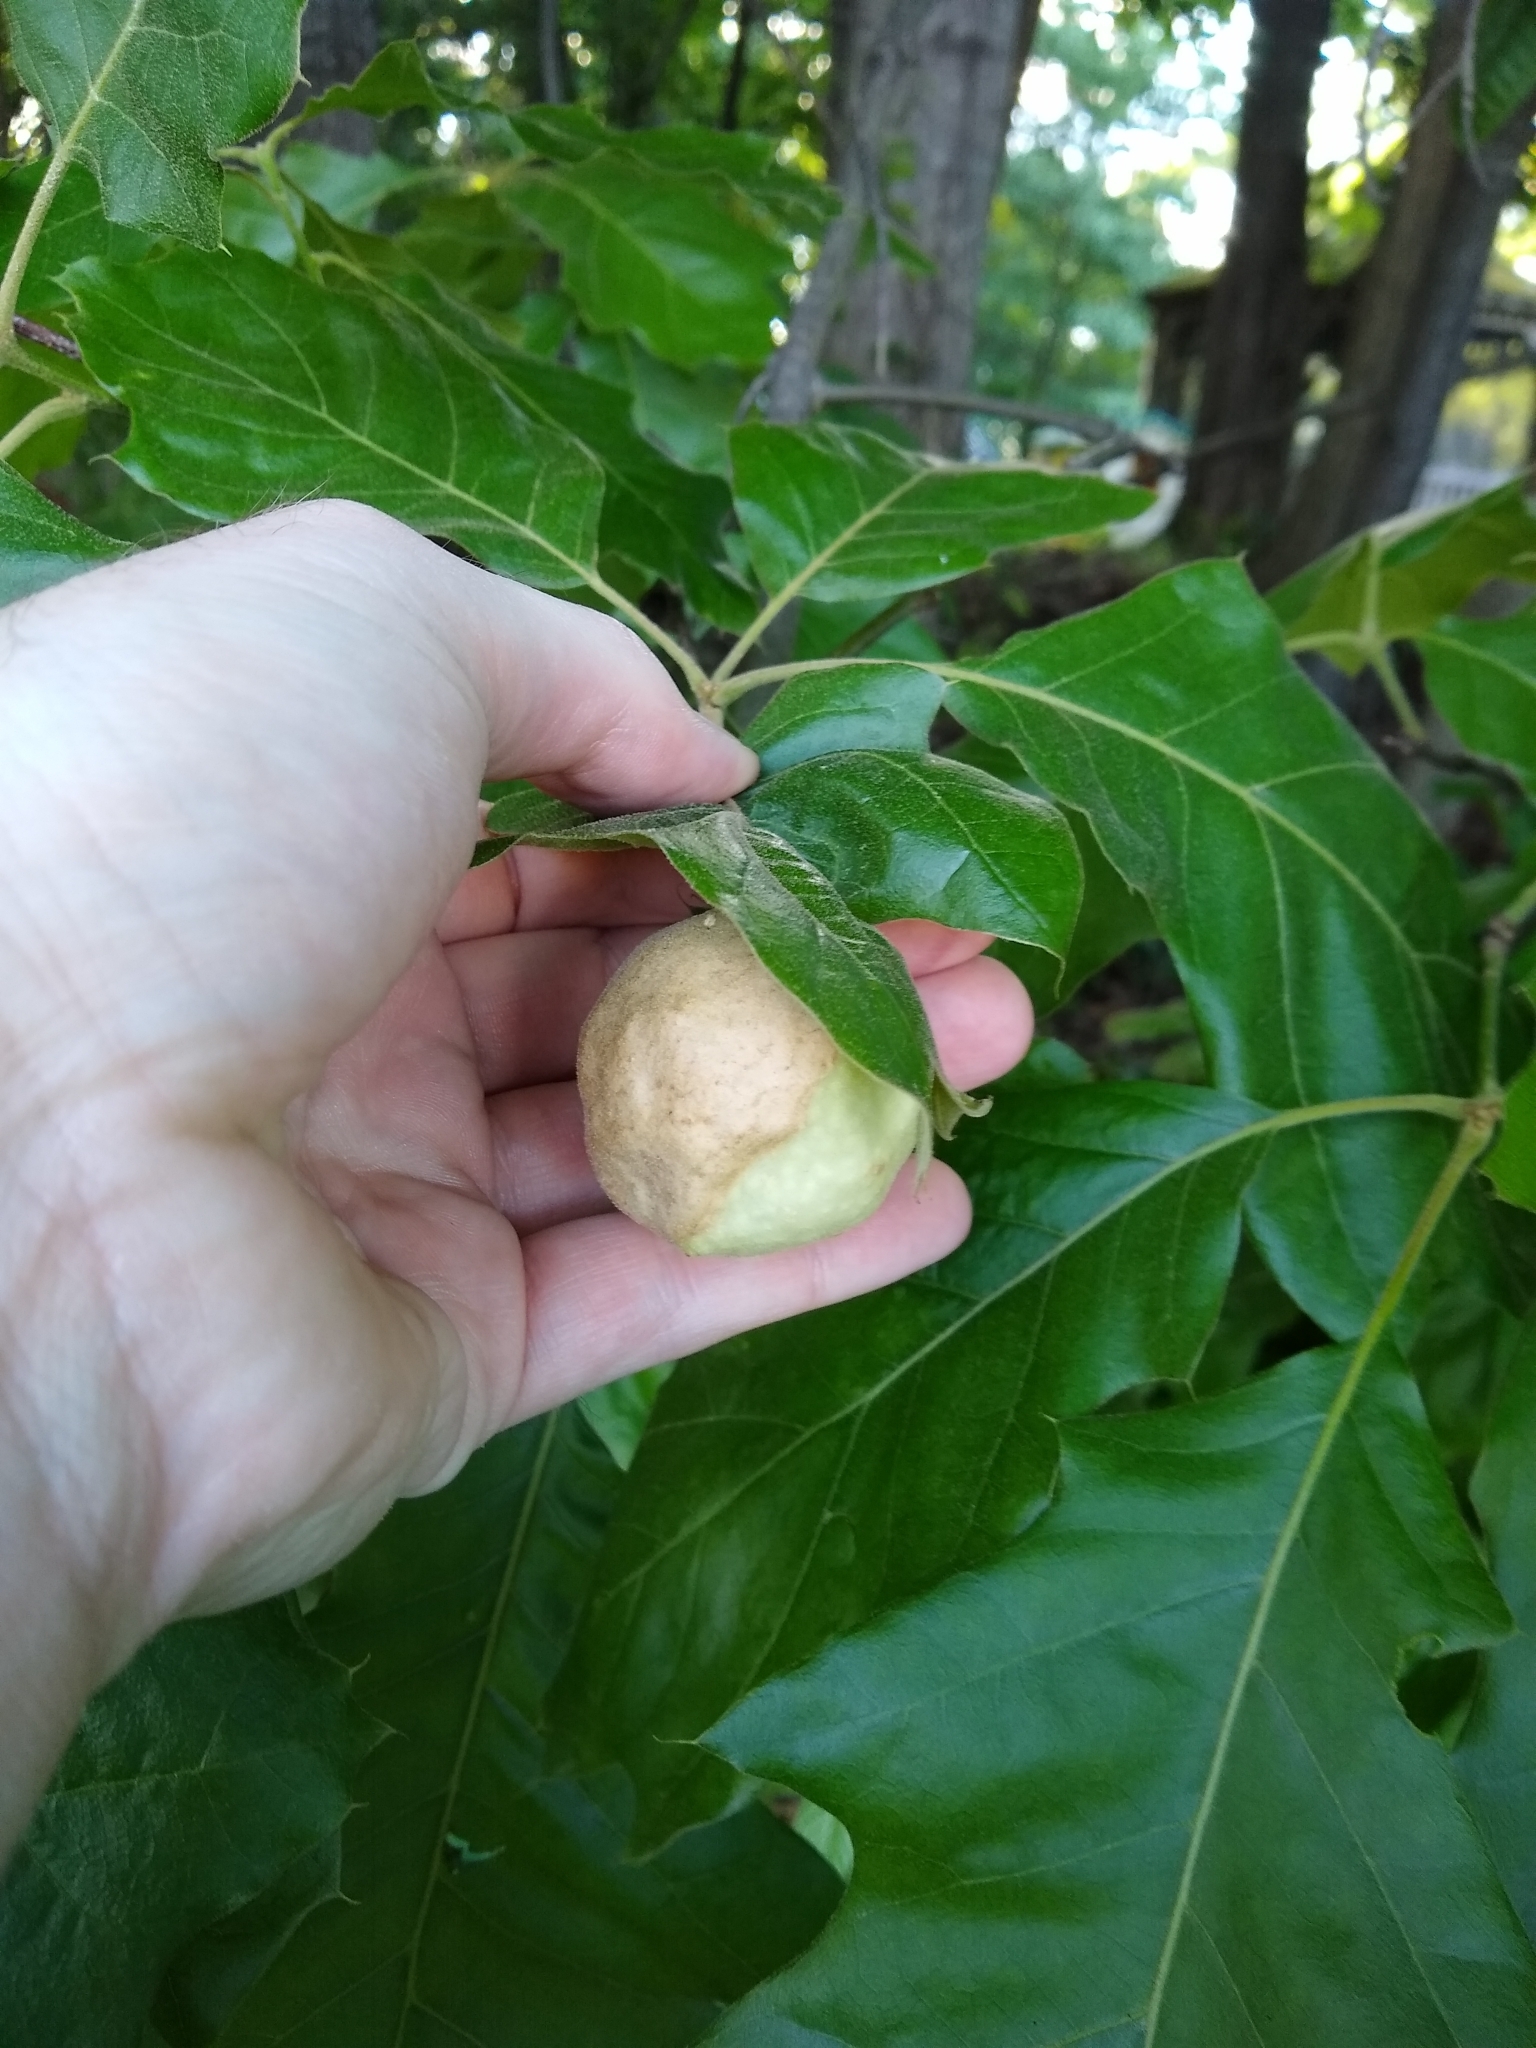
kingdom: Animalia
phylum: Arthropoda
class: Insecta
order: Hymenoptera
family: Cynipidae
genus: Amphibolips
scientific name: Amphibolips
